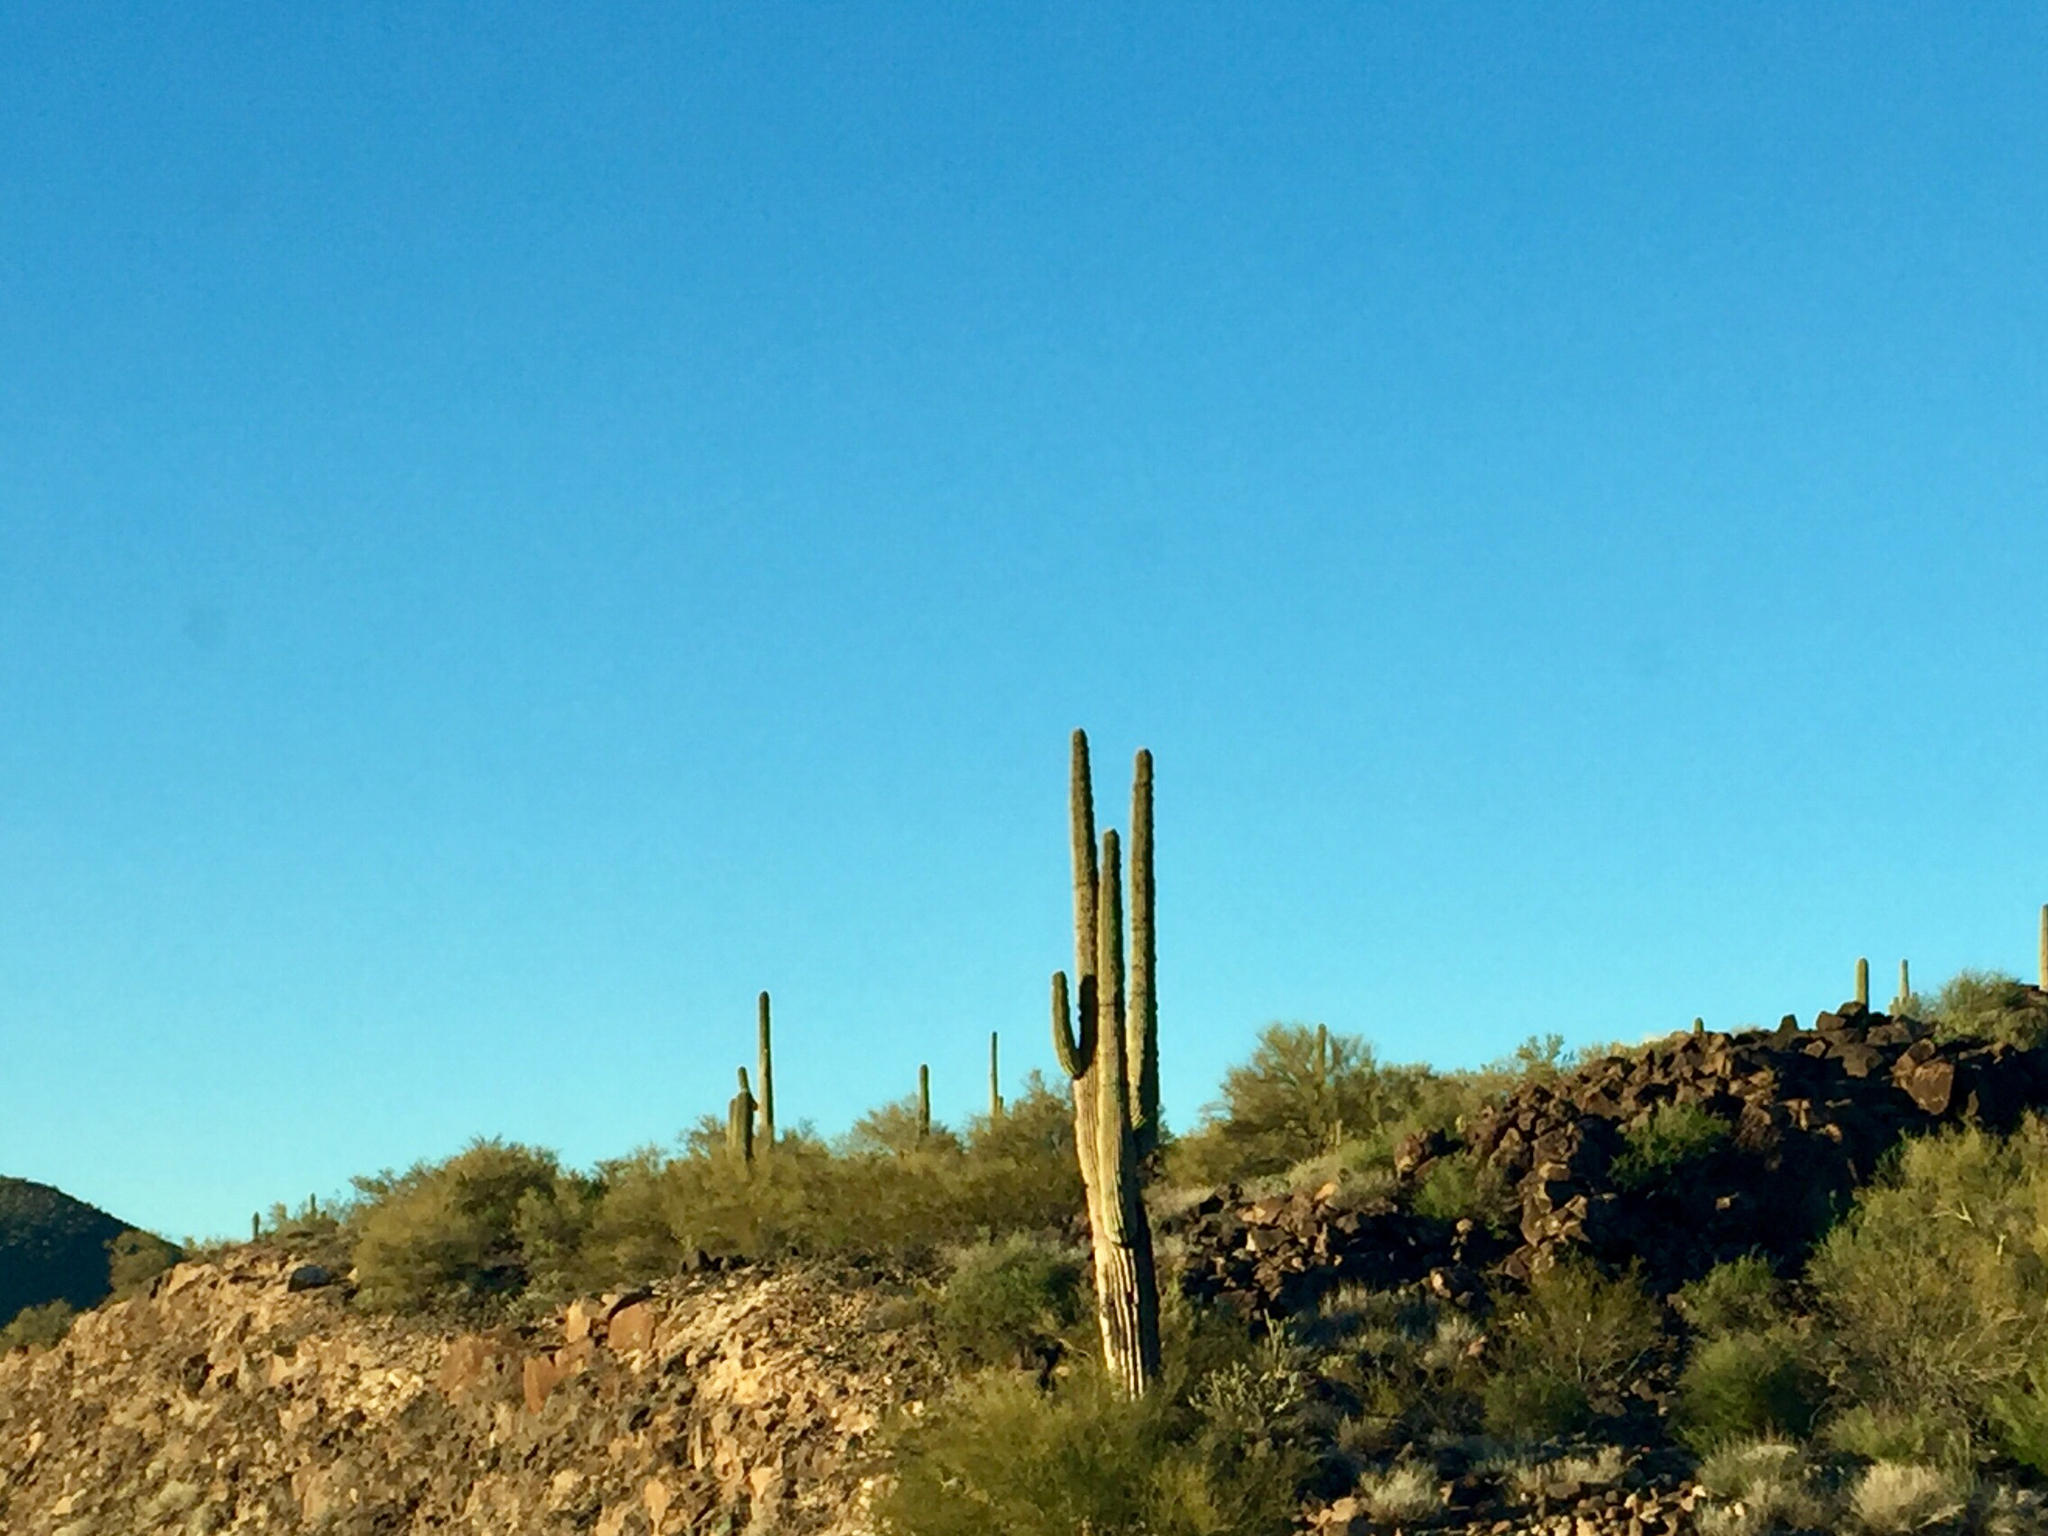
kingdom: Plantae
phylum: Tracheophyta
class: Magnoliopsida
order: Caryophyllales
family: Cactaceae
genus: Carnegiea
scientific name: Carnegiea gigantea
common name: Saguaro
